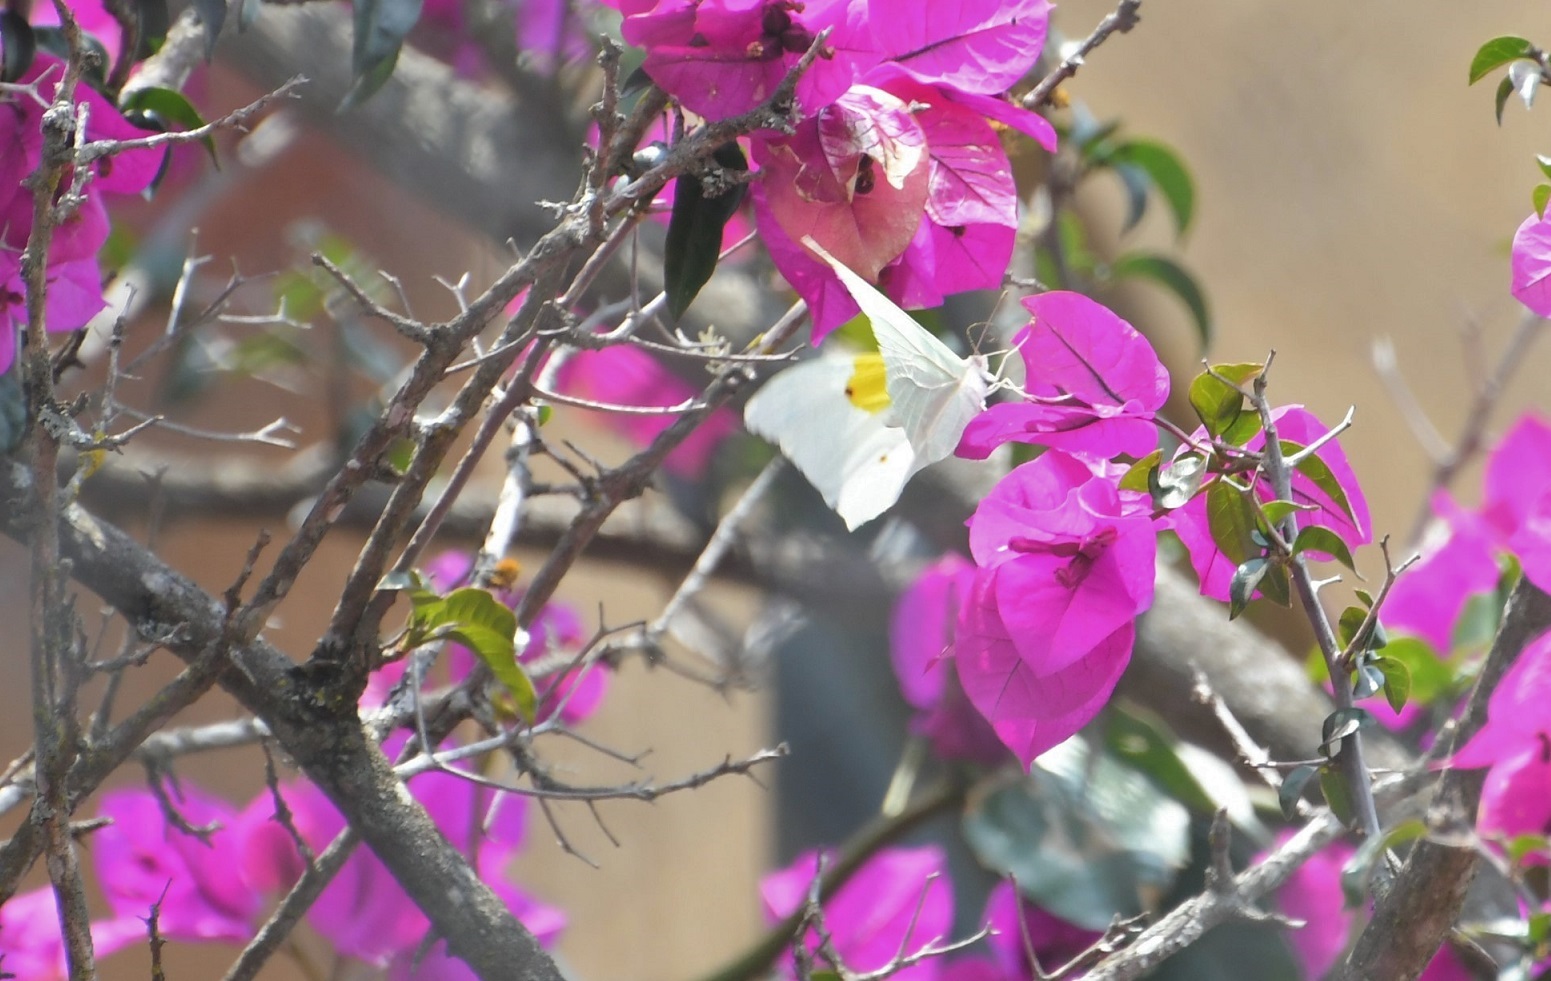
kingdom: Animalia
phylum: Arthropoda
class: Insecta
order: Lepidoptera
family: Pieridae
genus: Anteos
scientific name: Anteos clorinde
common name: White angled sulphur
